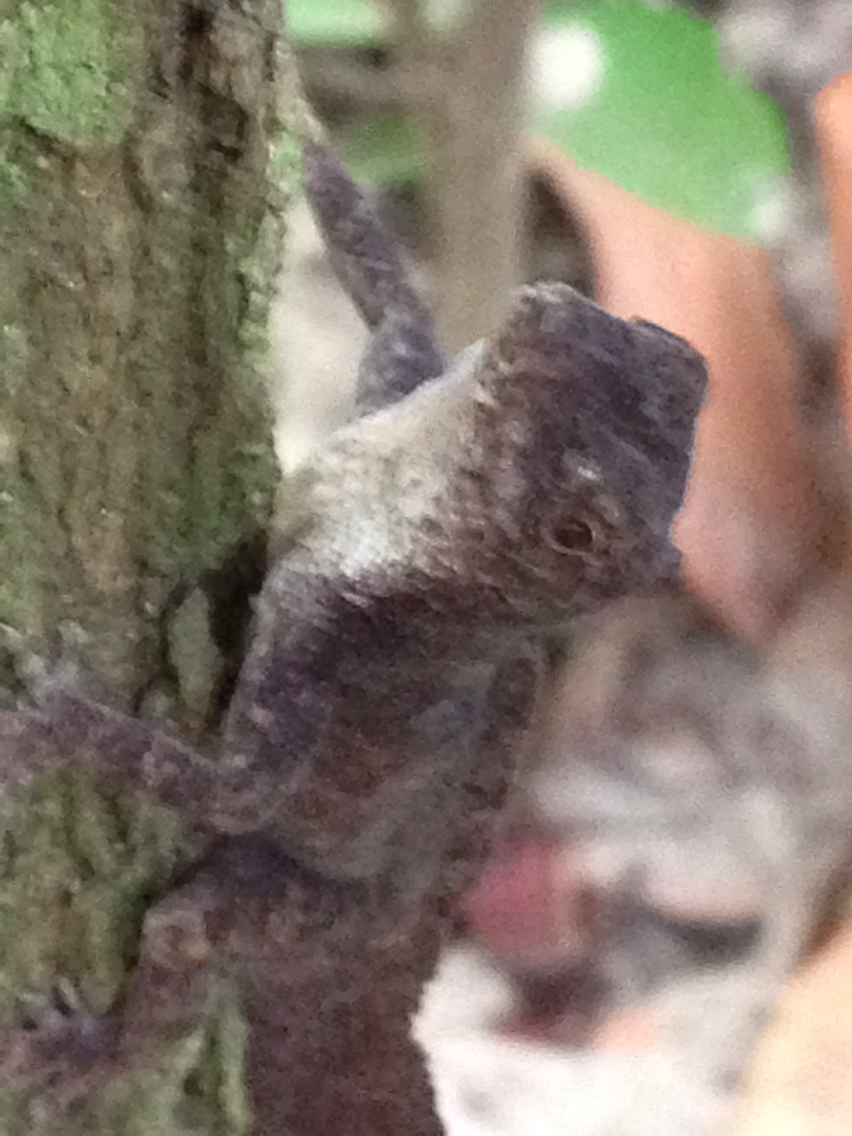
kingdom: Animalia
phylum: Chordata
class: Squamata
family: Dactyloidae
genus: Anolis
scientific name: Anolis homolechis
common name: Habana anole
